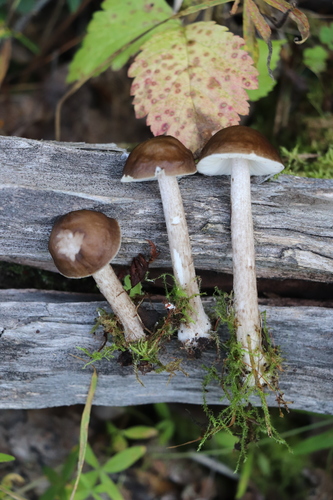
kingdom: Fungi
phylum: Basidiomycota
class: Agaricomycetes
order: Agaricales
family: Pluteaceae
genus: Pluteus
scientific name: Pluteus
